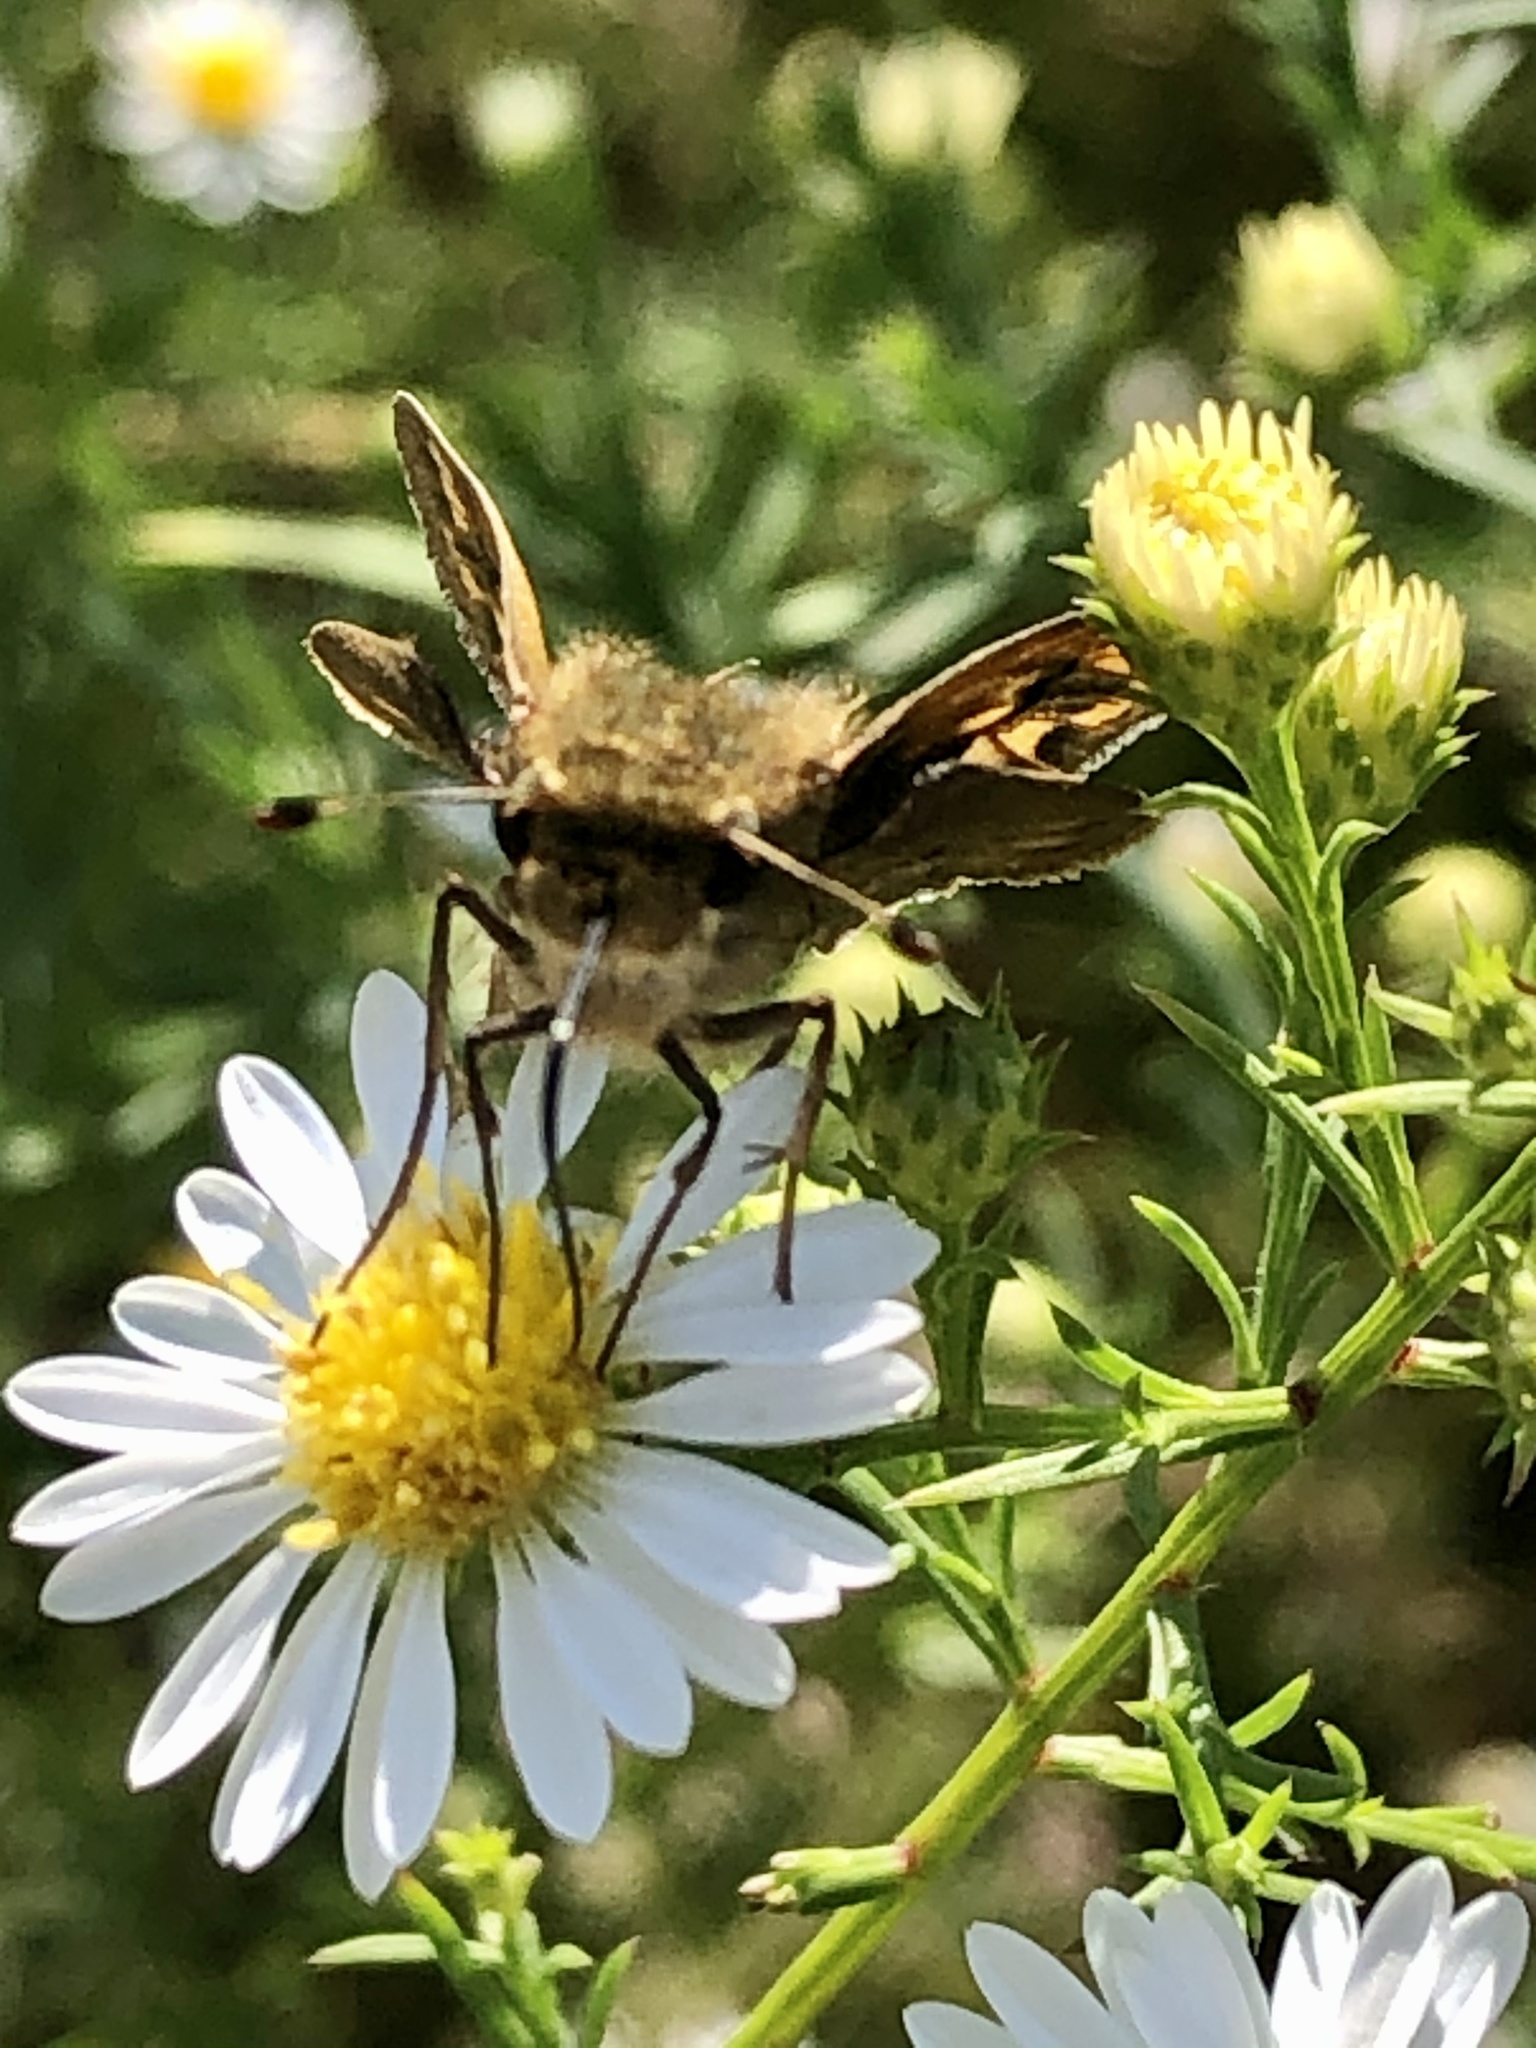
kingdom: Animalia
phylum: Arthropoda
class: Insecta
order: Lepidoptera
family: Hesperiidae
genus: Atalopedes
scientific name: Atalopedes
